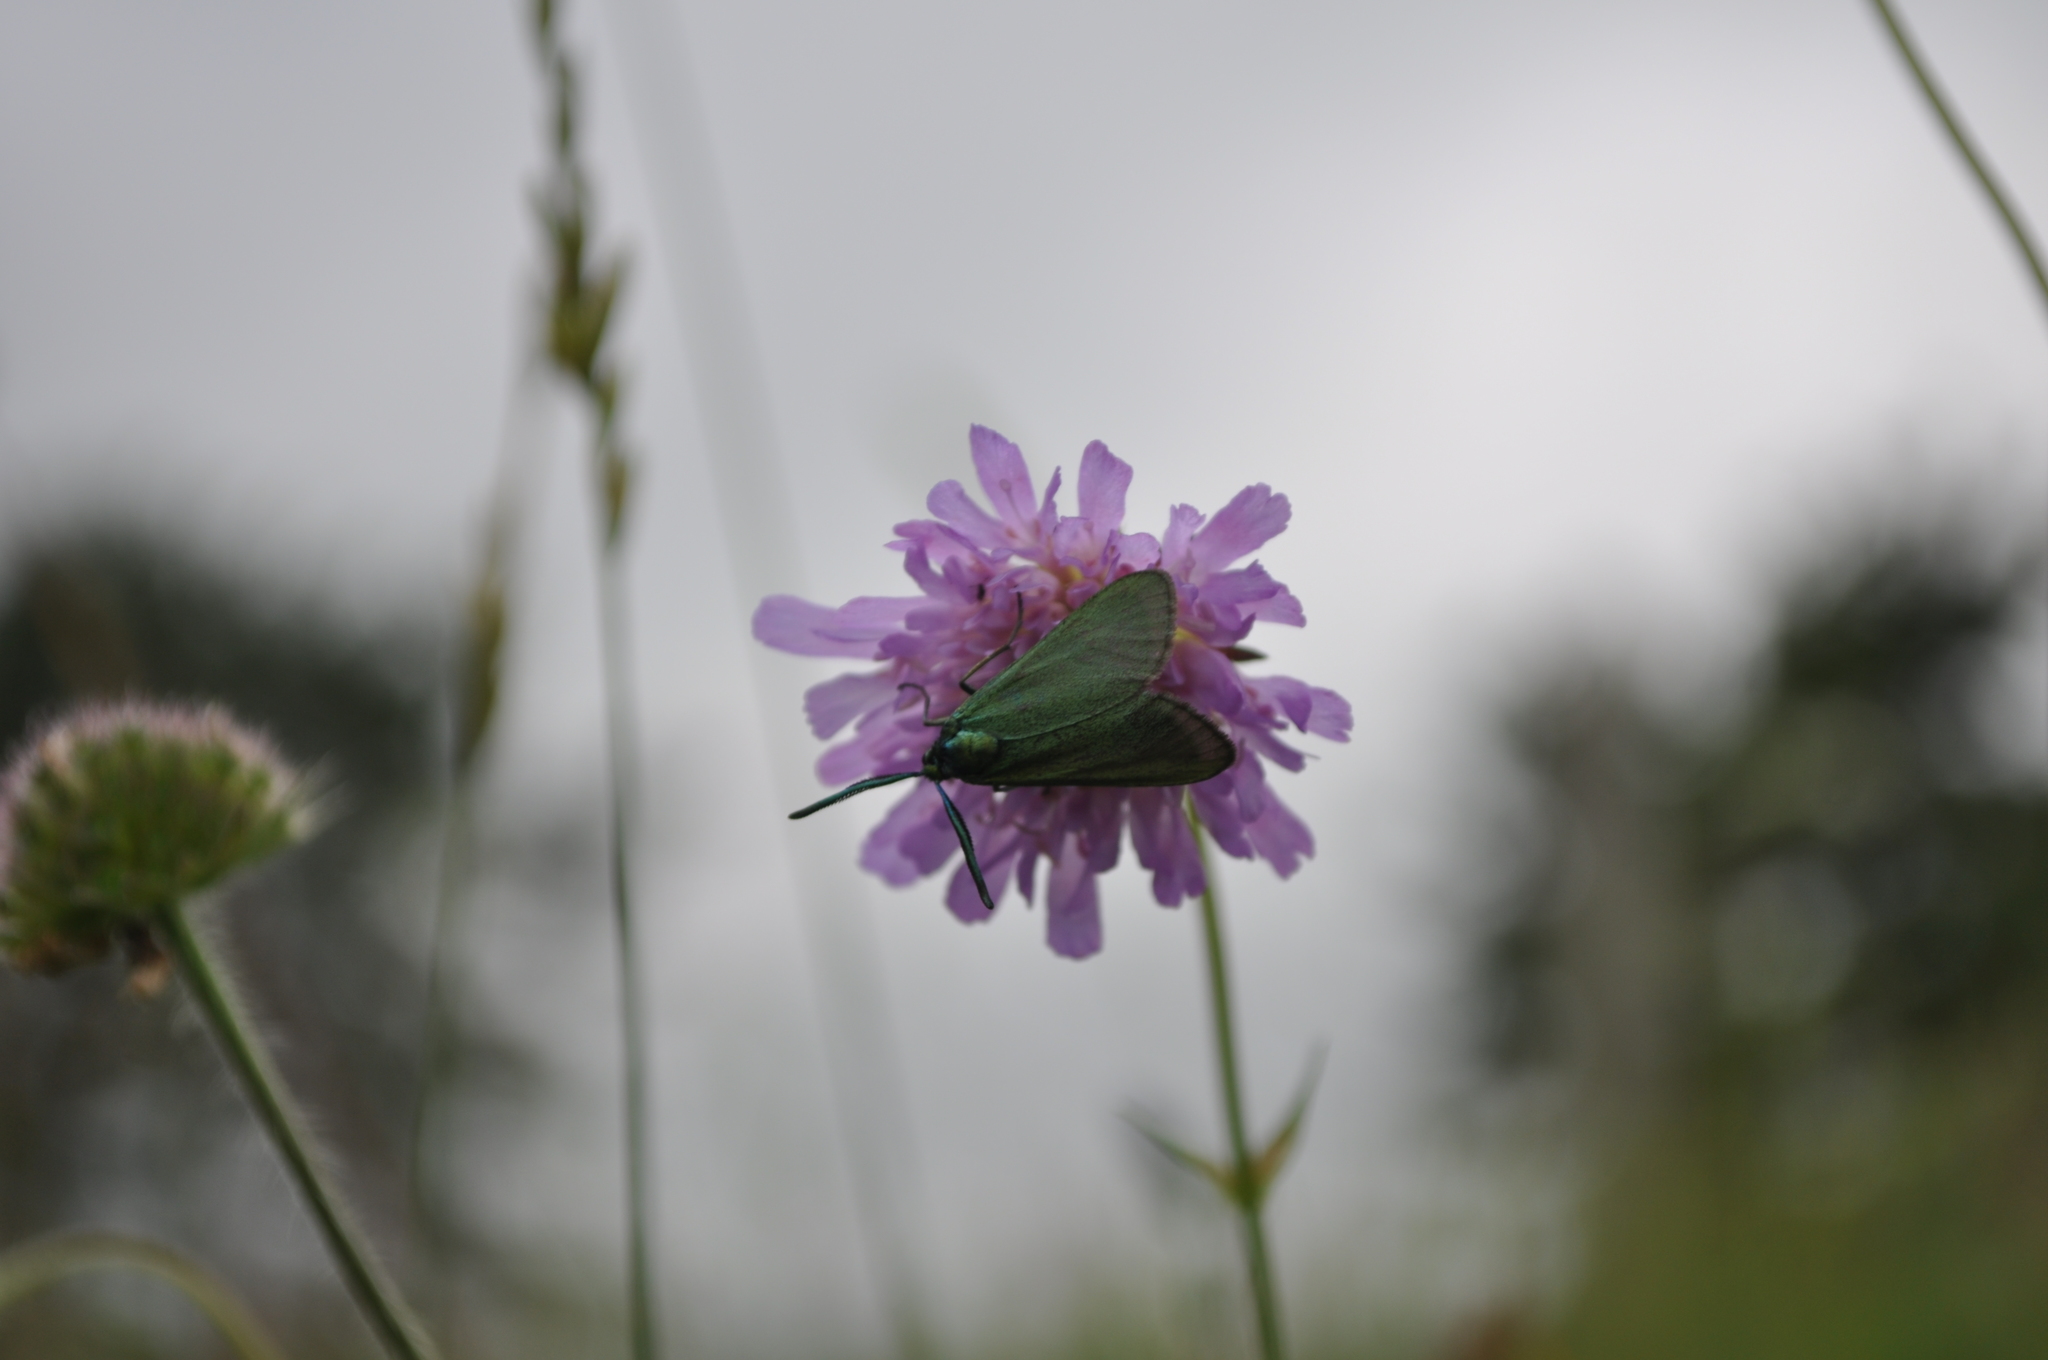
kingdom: Animalia
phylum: Arthropoda
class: Insecta
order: Lepidoptera
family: Zygaenidae
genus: Adscita
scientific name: Adscita statices
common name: Forester
